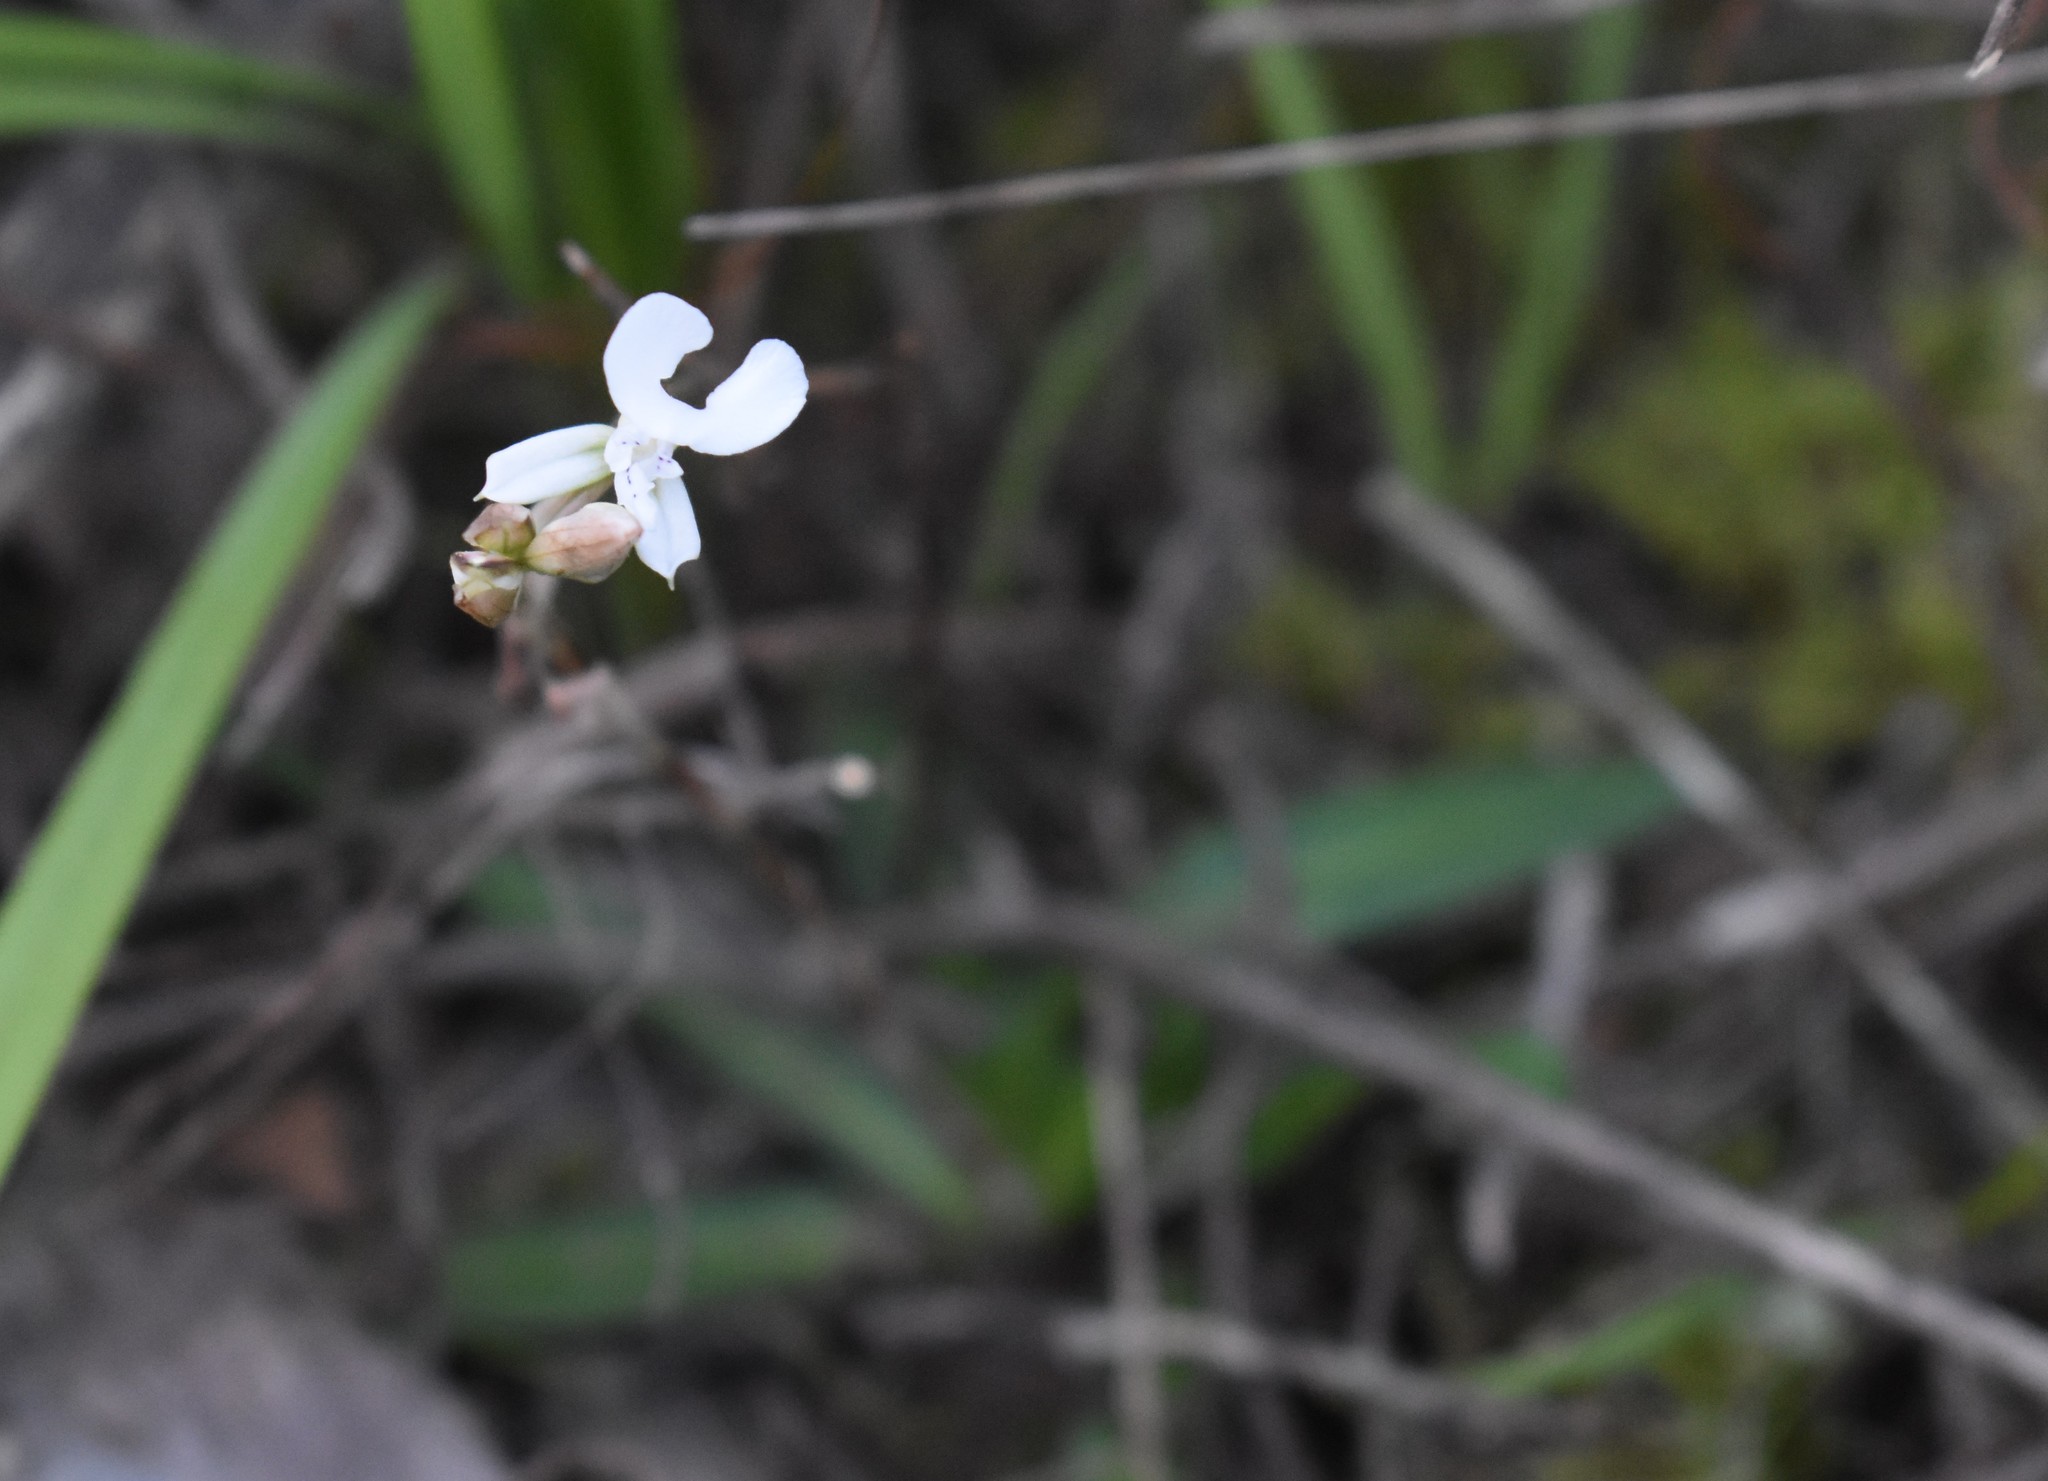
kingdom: Plantae
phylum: Tracheophyta
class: Liliopsida
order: Asparagales
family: Orchidaceae
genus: Disa
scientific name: Disa sagittalis
